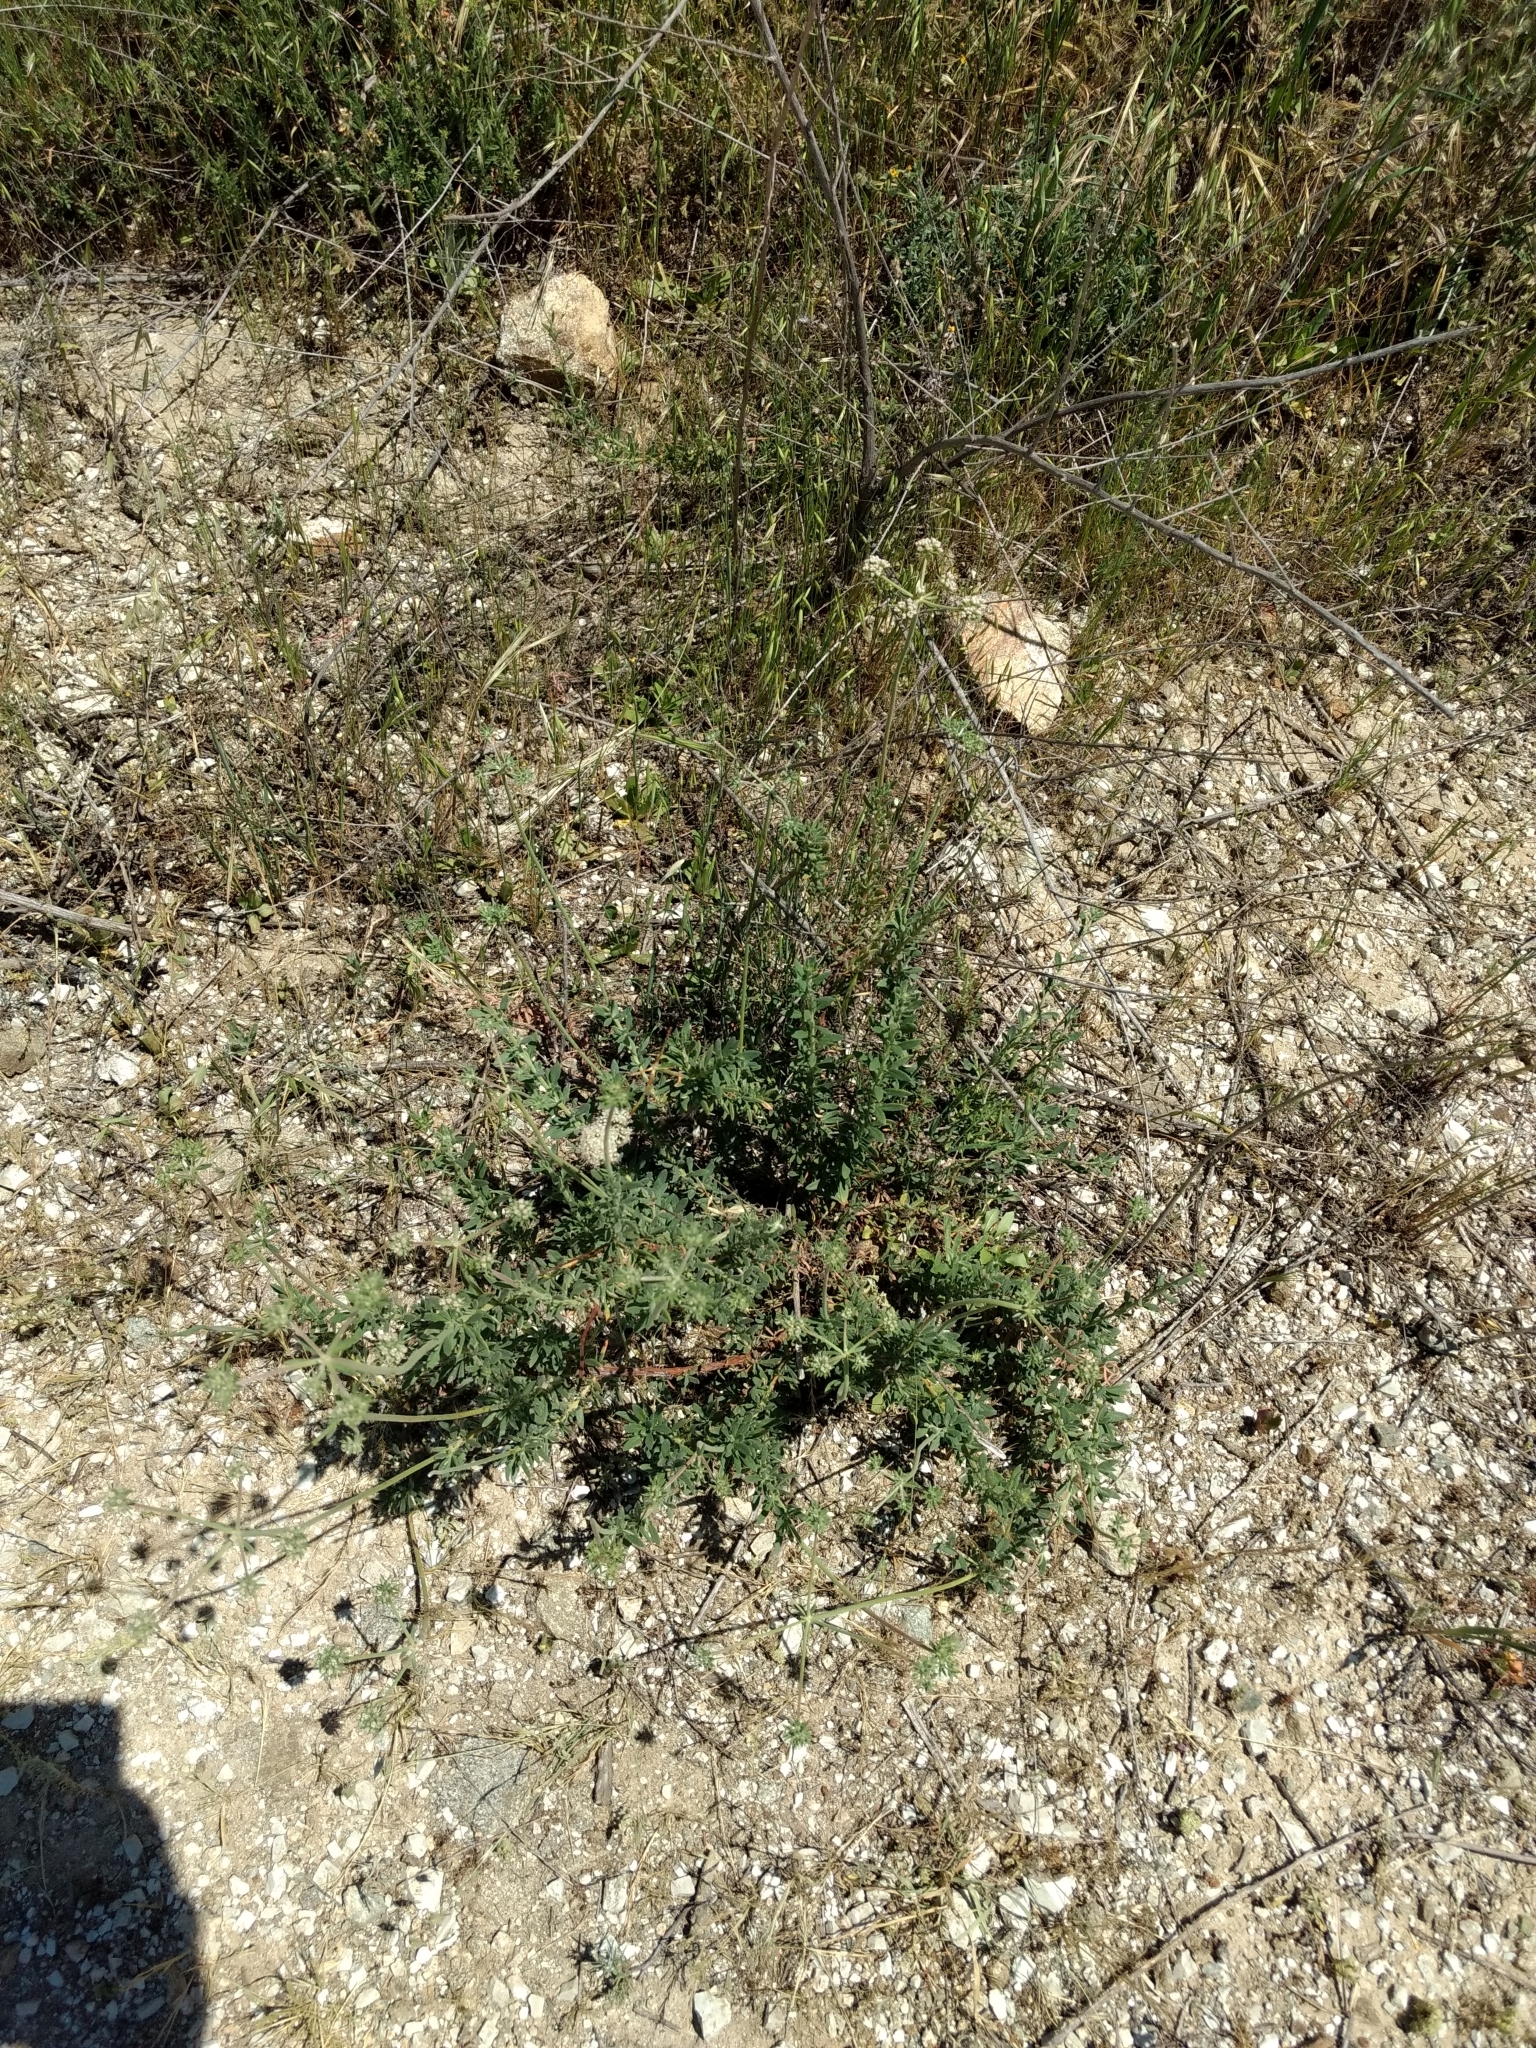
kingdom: Plantae
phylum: Tracheophyta
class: Magnoliopsida
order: Caryophyllales
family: Polygonaceae
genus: Eriogonum
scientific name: Eriogonum fasciculatum
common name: California wild buckwheat
